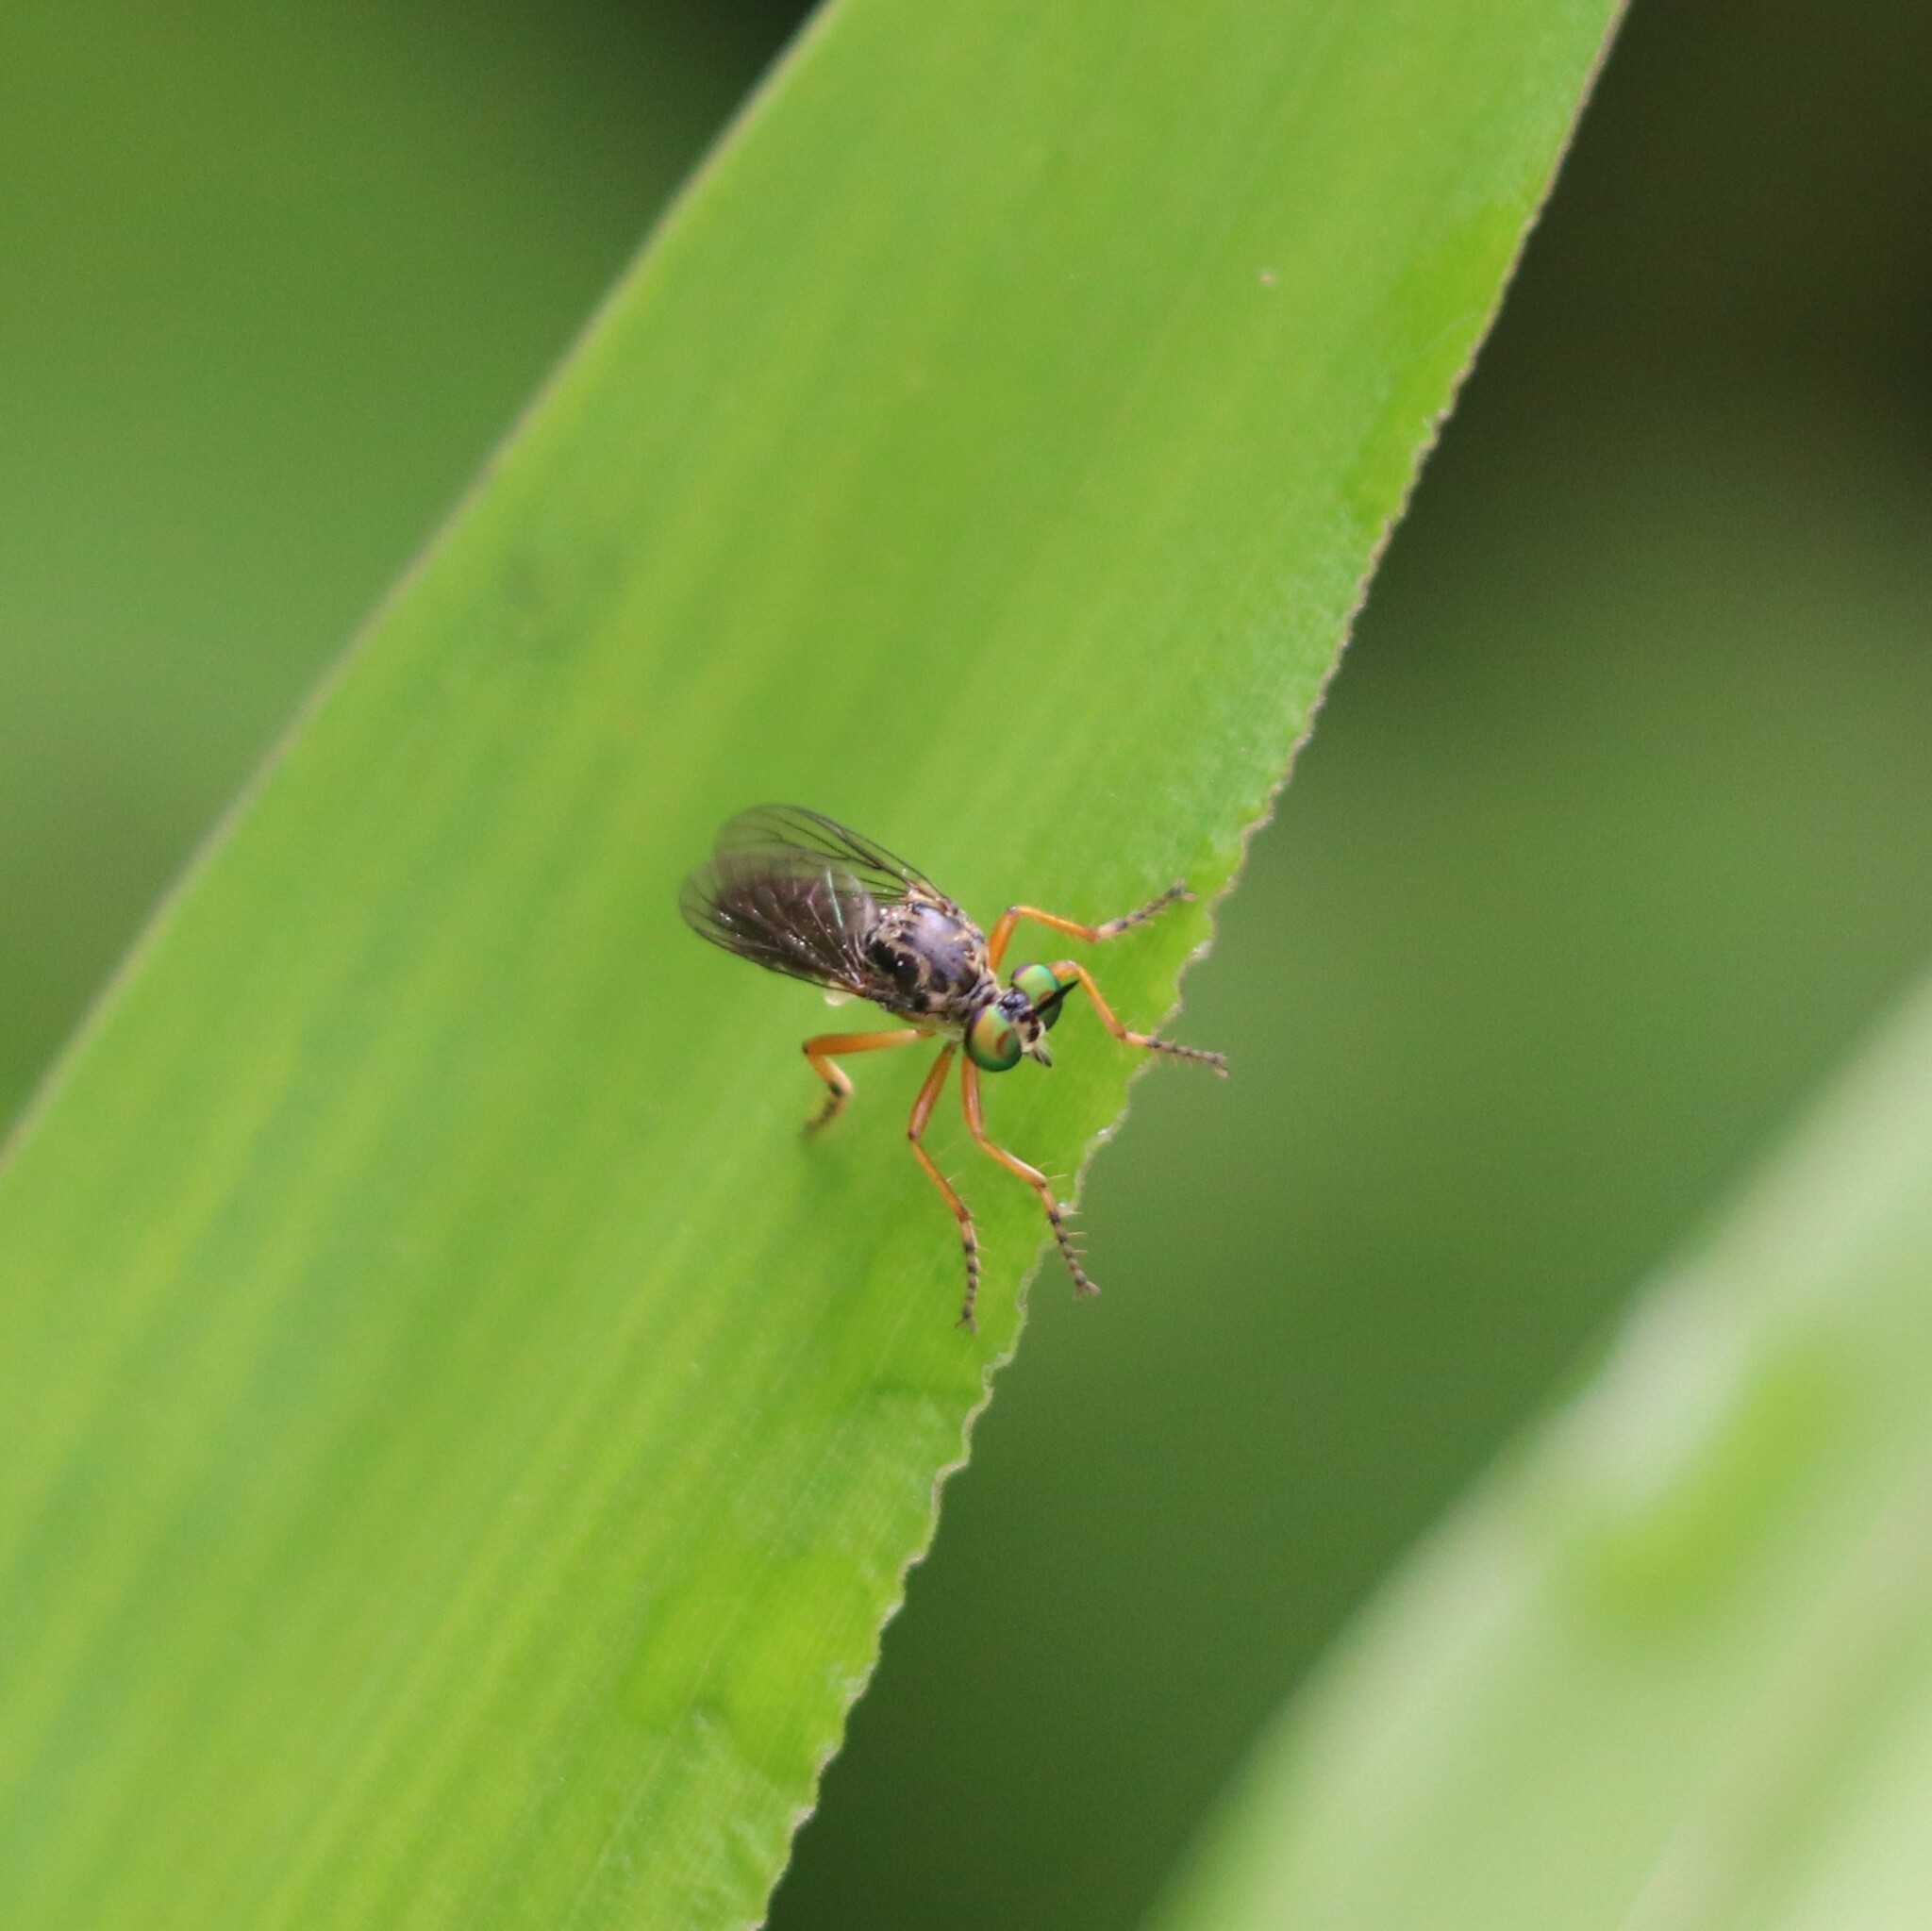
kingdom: Animalia
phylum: Arthropoda
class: Insecta
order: Diptera
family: Asilidae
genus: Taracticus
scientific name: Taracticus octopunctatus
